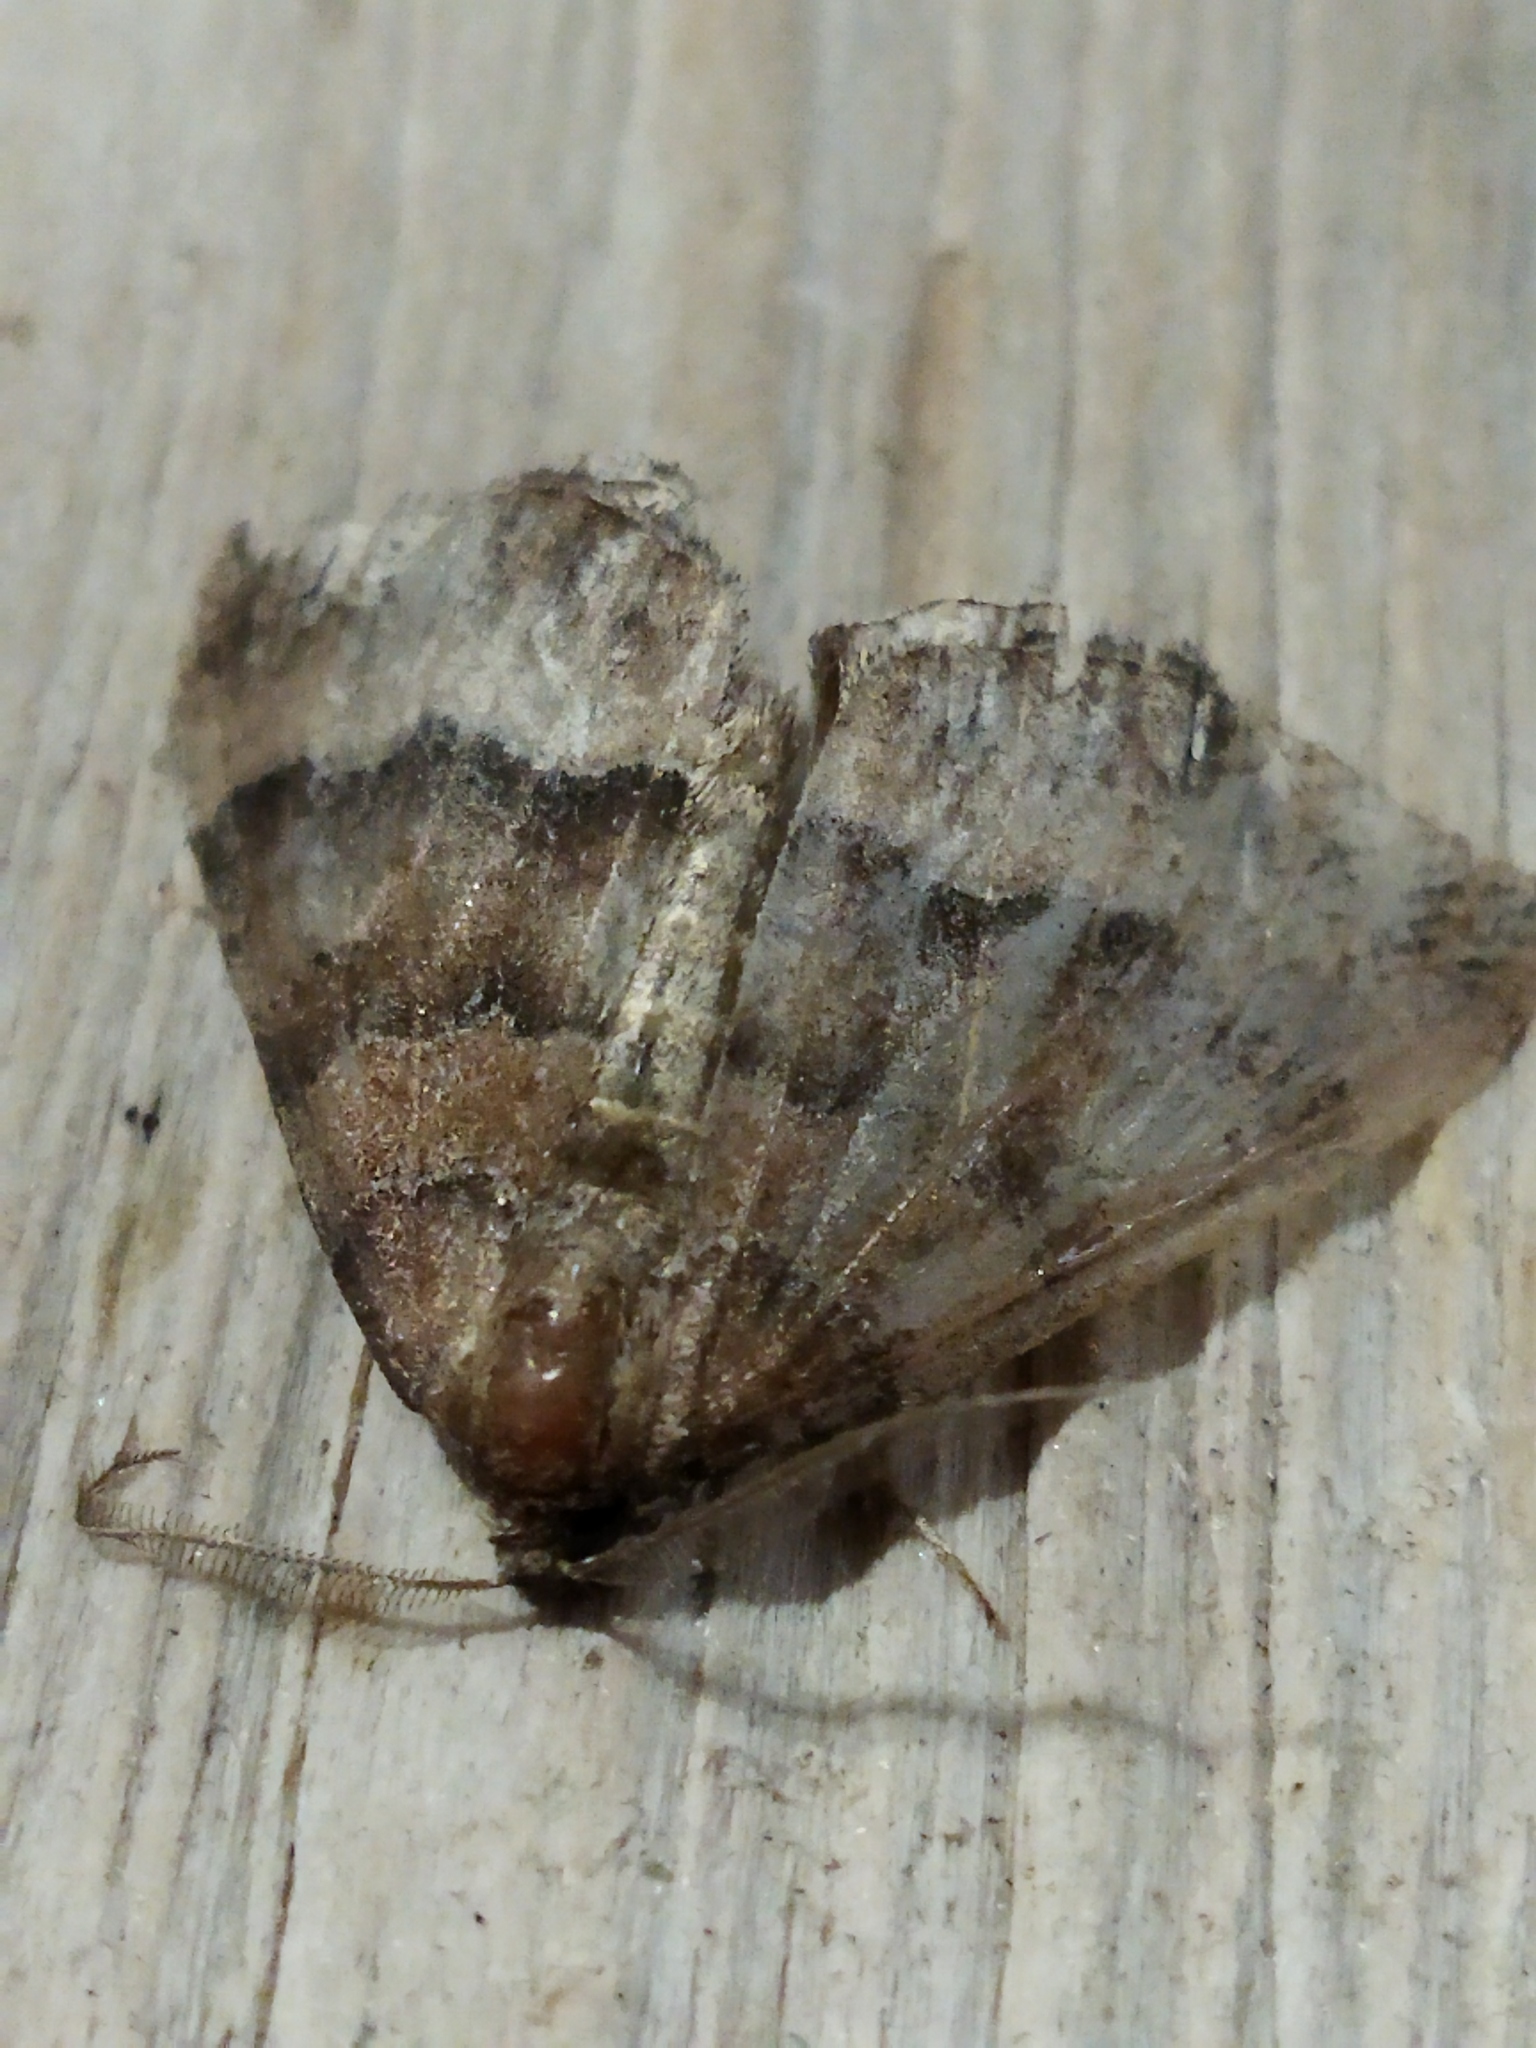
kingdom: Animalia
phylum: Arthropoda
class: Insecta
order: Lepidoptera
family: Geometridae
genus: Larentia
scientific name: Larentia clavaria
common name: Mallow
